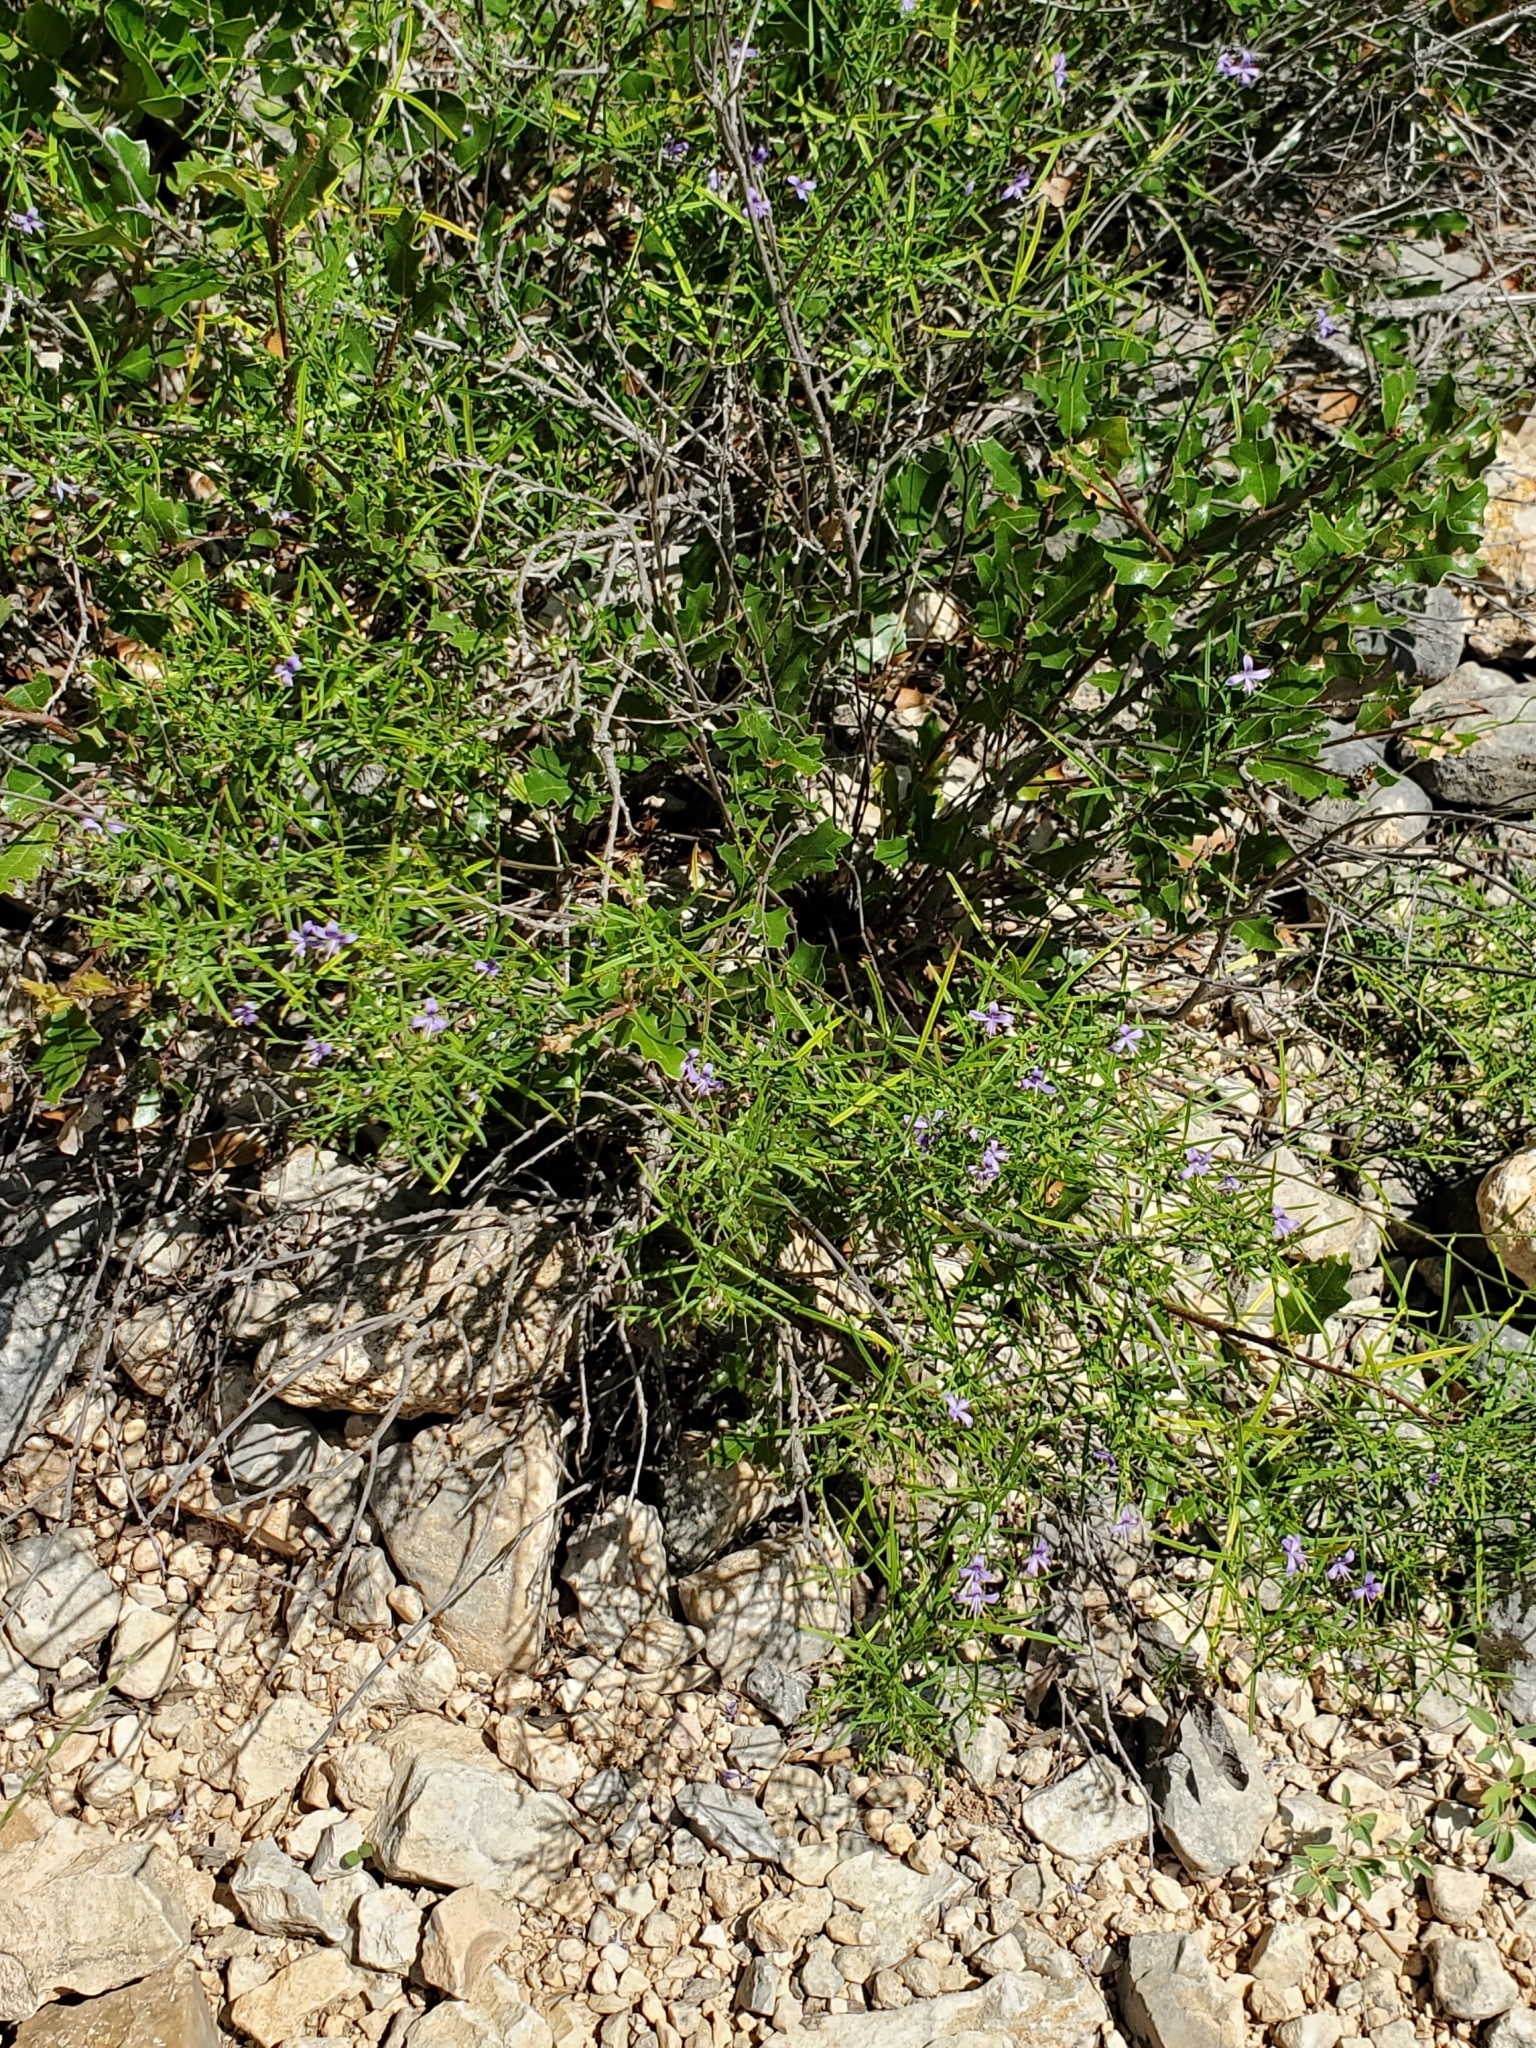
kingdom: Plantae
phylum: Tracheophyta
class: Magnoliopsida
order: Lamiales
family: Acanthaceae
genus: Carlowrightia
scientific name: Carlowrightia linearifolia
